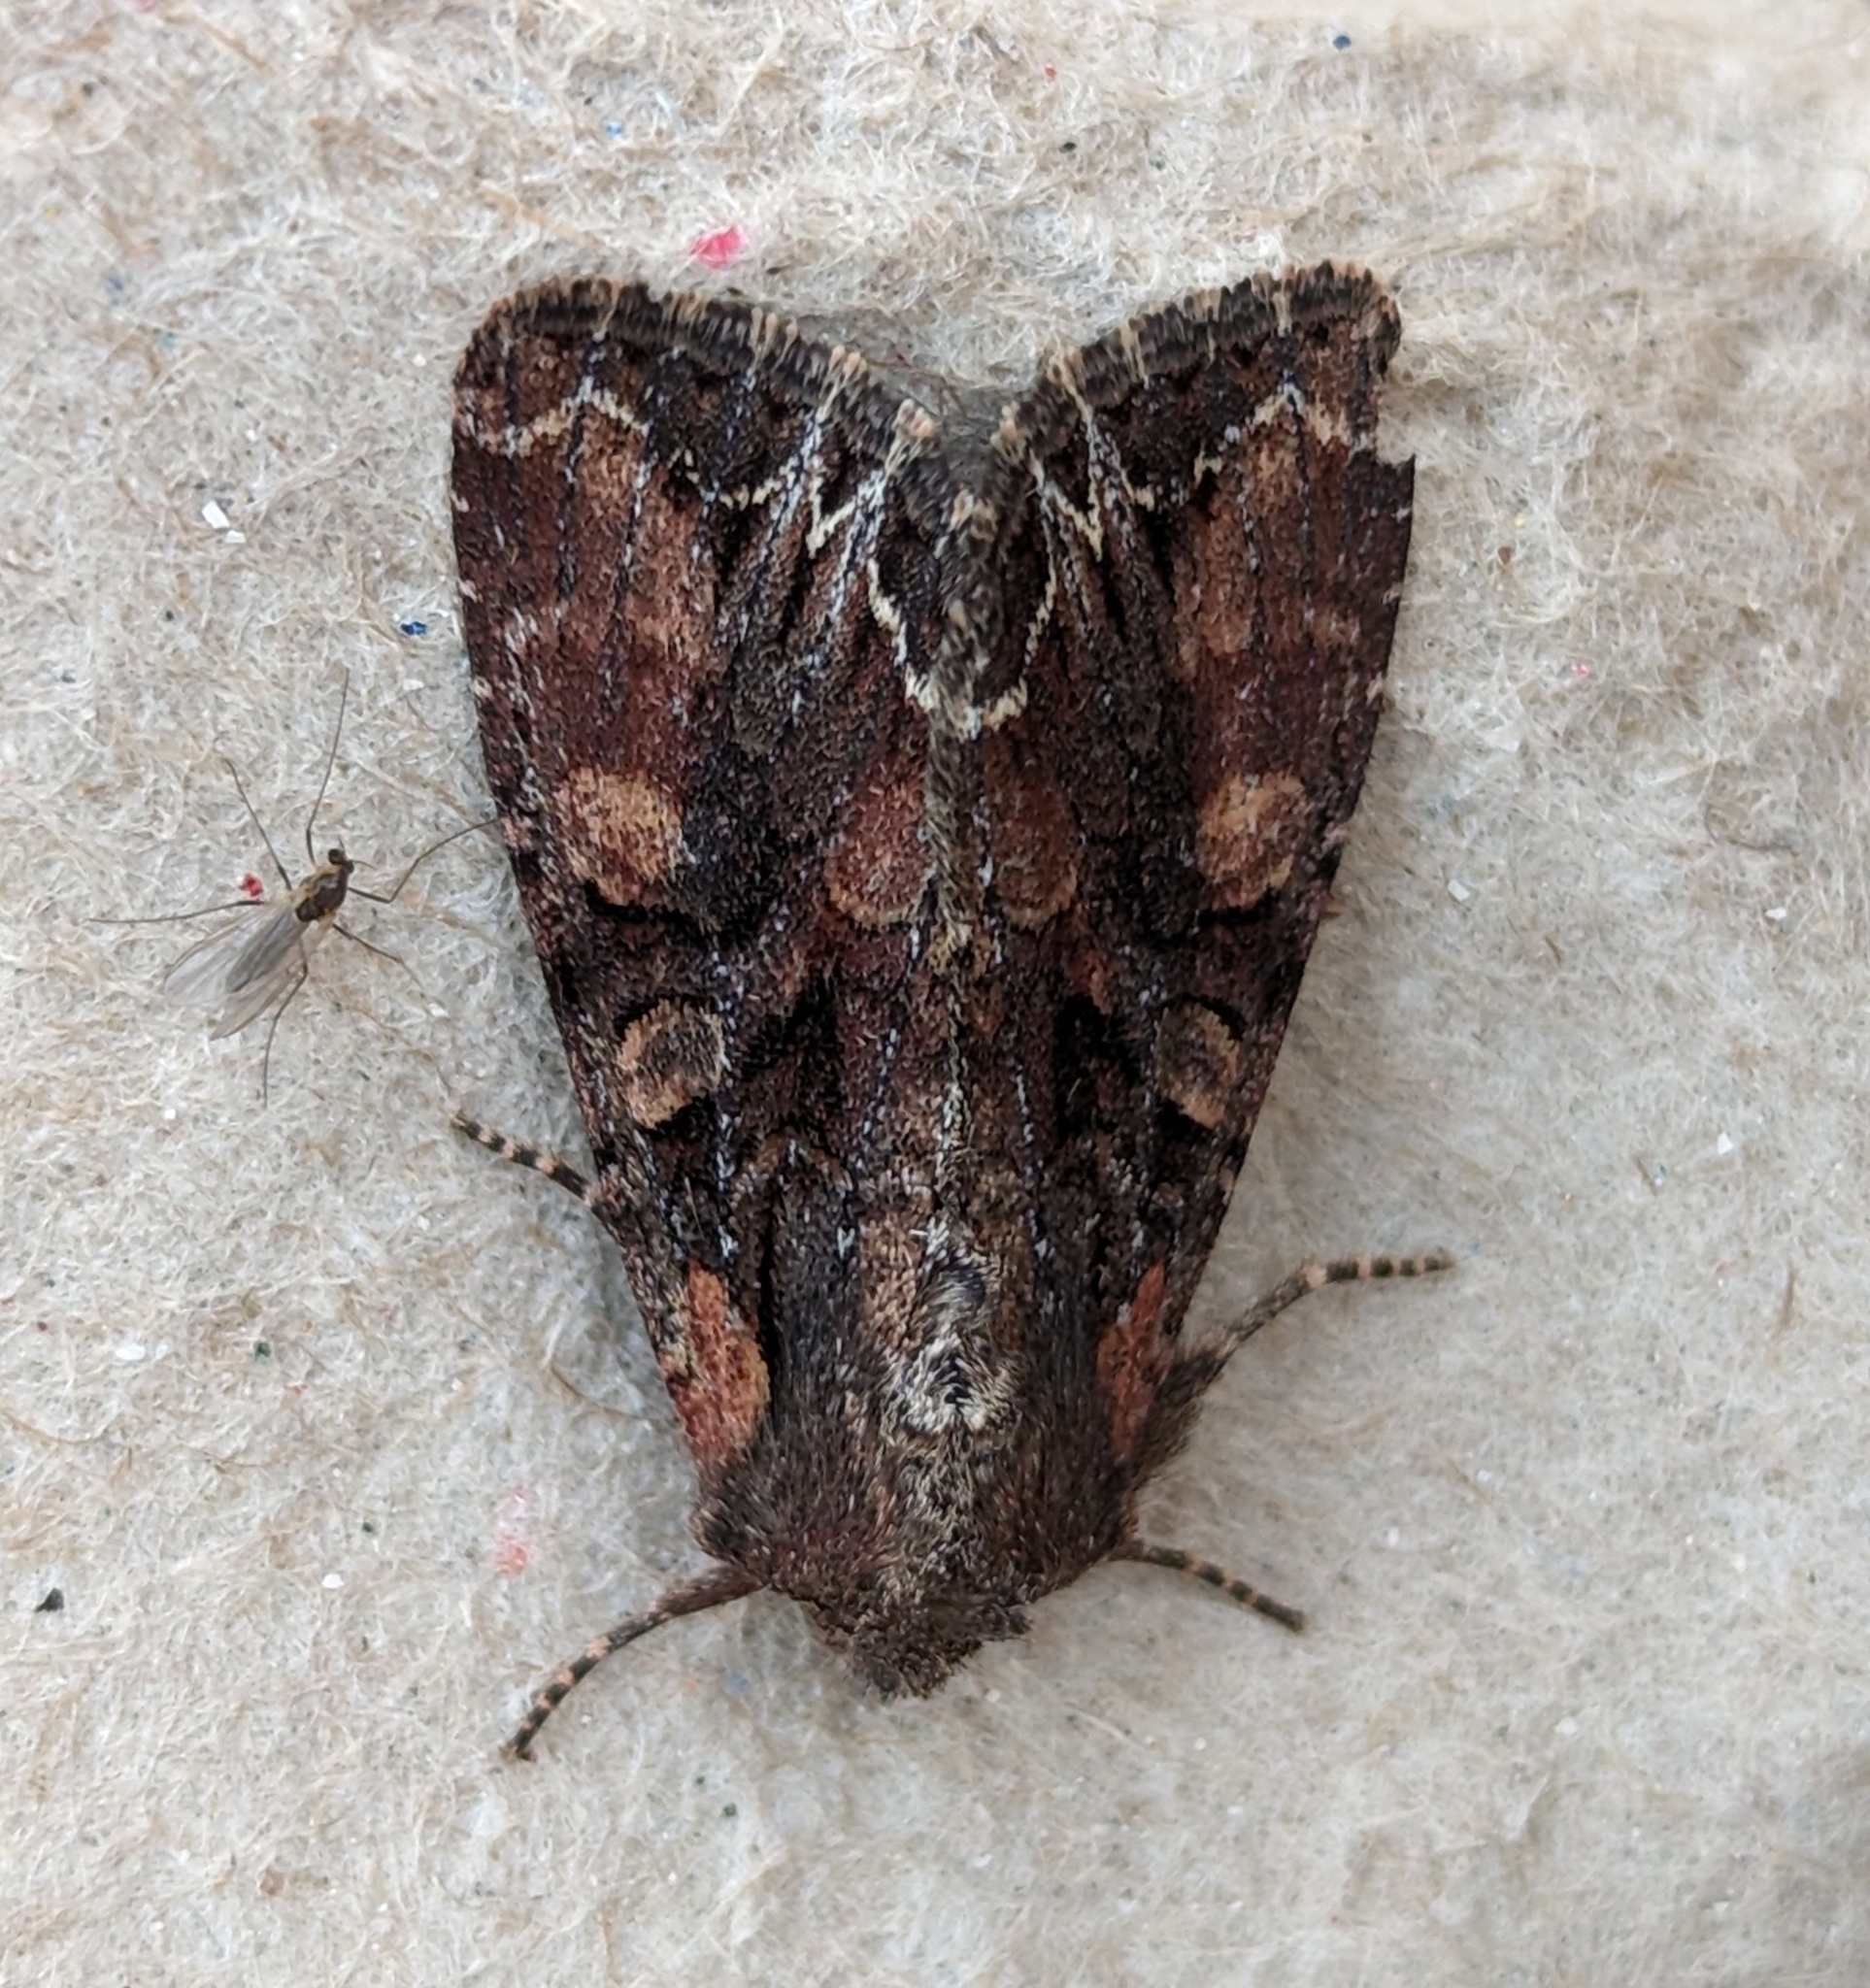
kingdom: Animalia
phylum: Arthropoda
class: Insecta
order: Lepidoptera
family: Noctuidae
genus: Lacanobia
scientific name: Lacanobia nevadae
